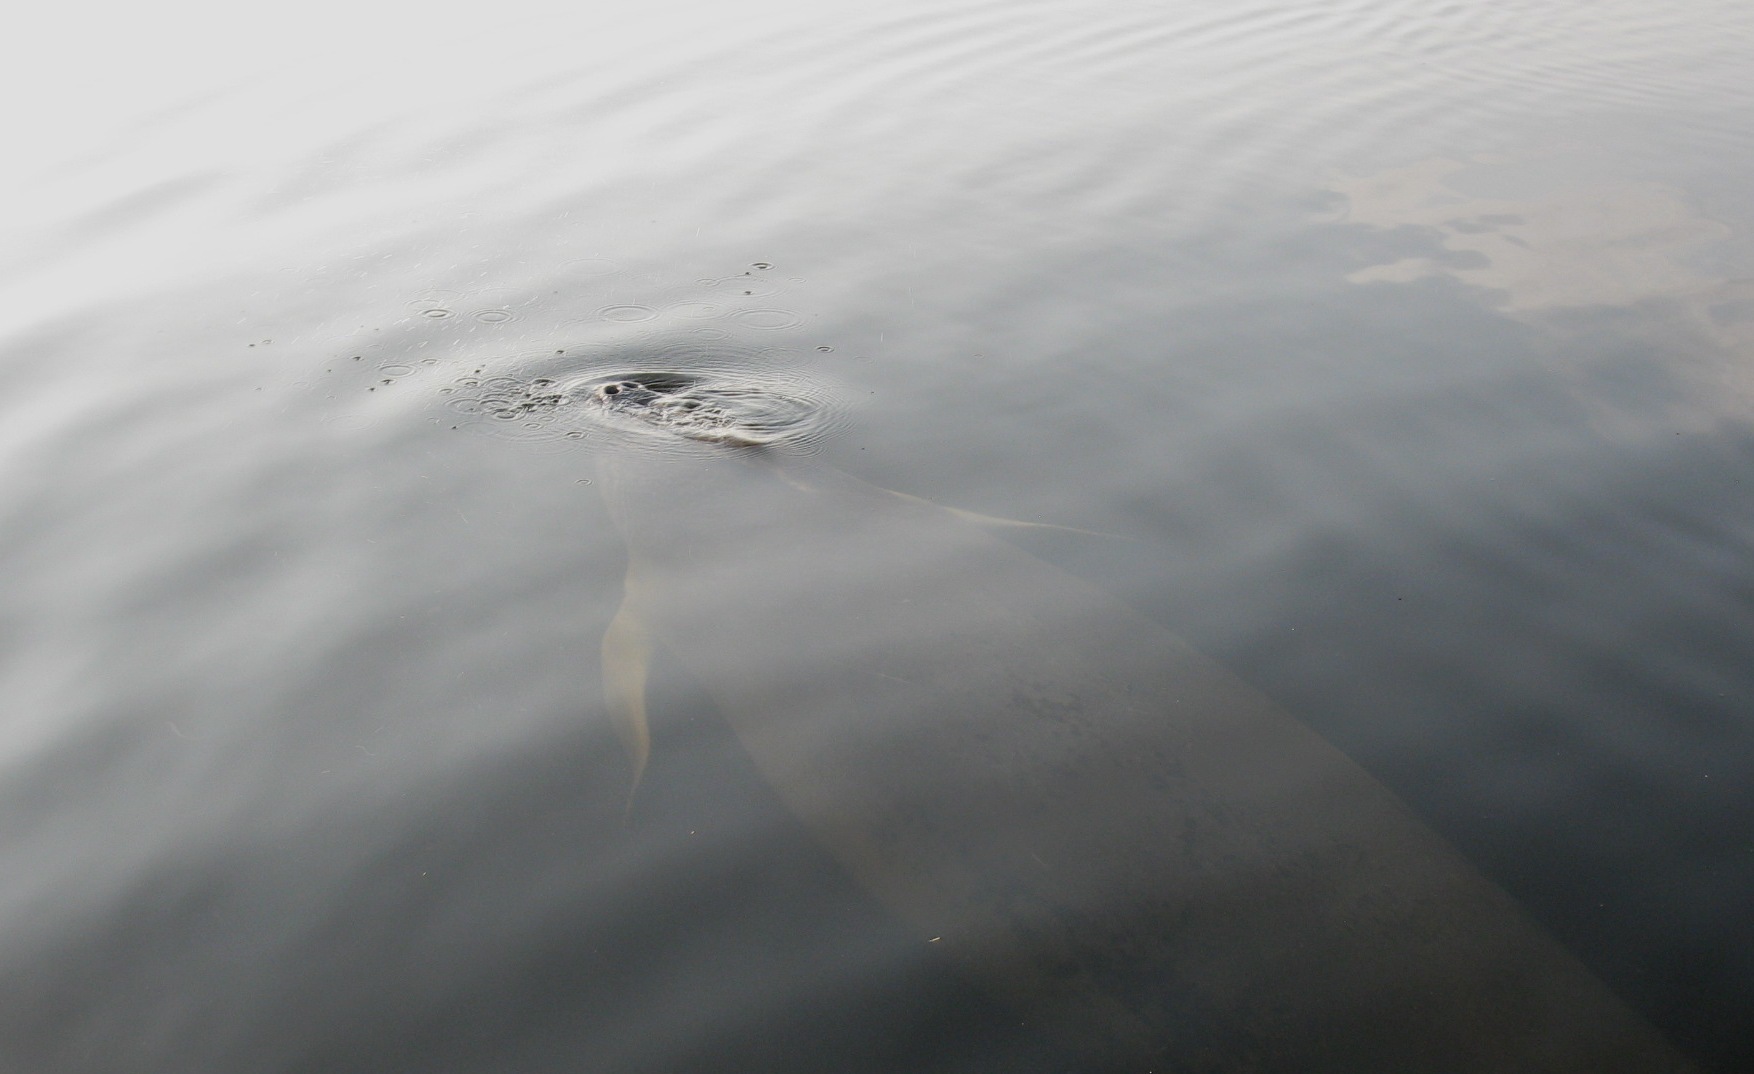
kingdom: Animalia
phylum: Chordata
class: Mammalia
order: Sirenia
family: Trichechidae
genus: Trichechus
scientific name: Trichechus senegalensis
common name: West african manatee
